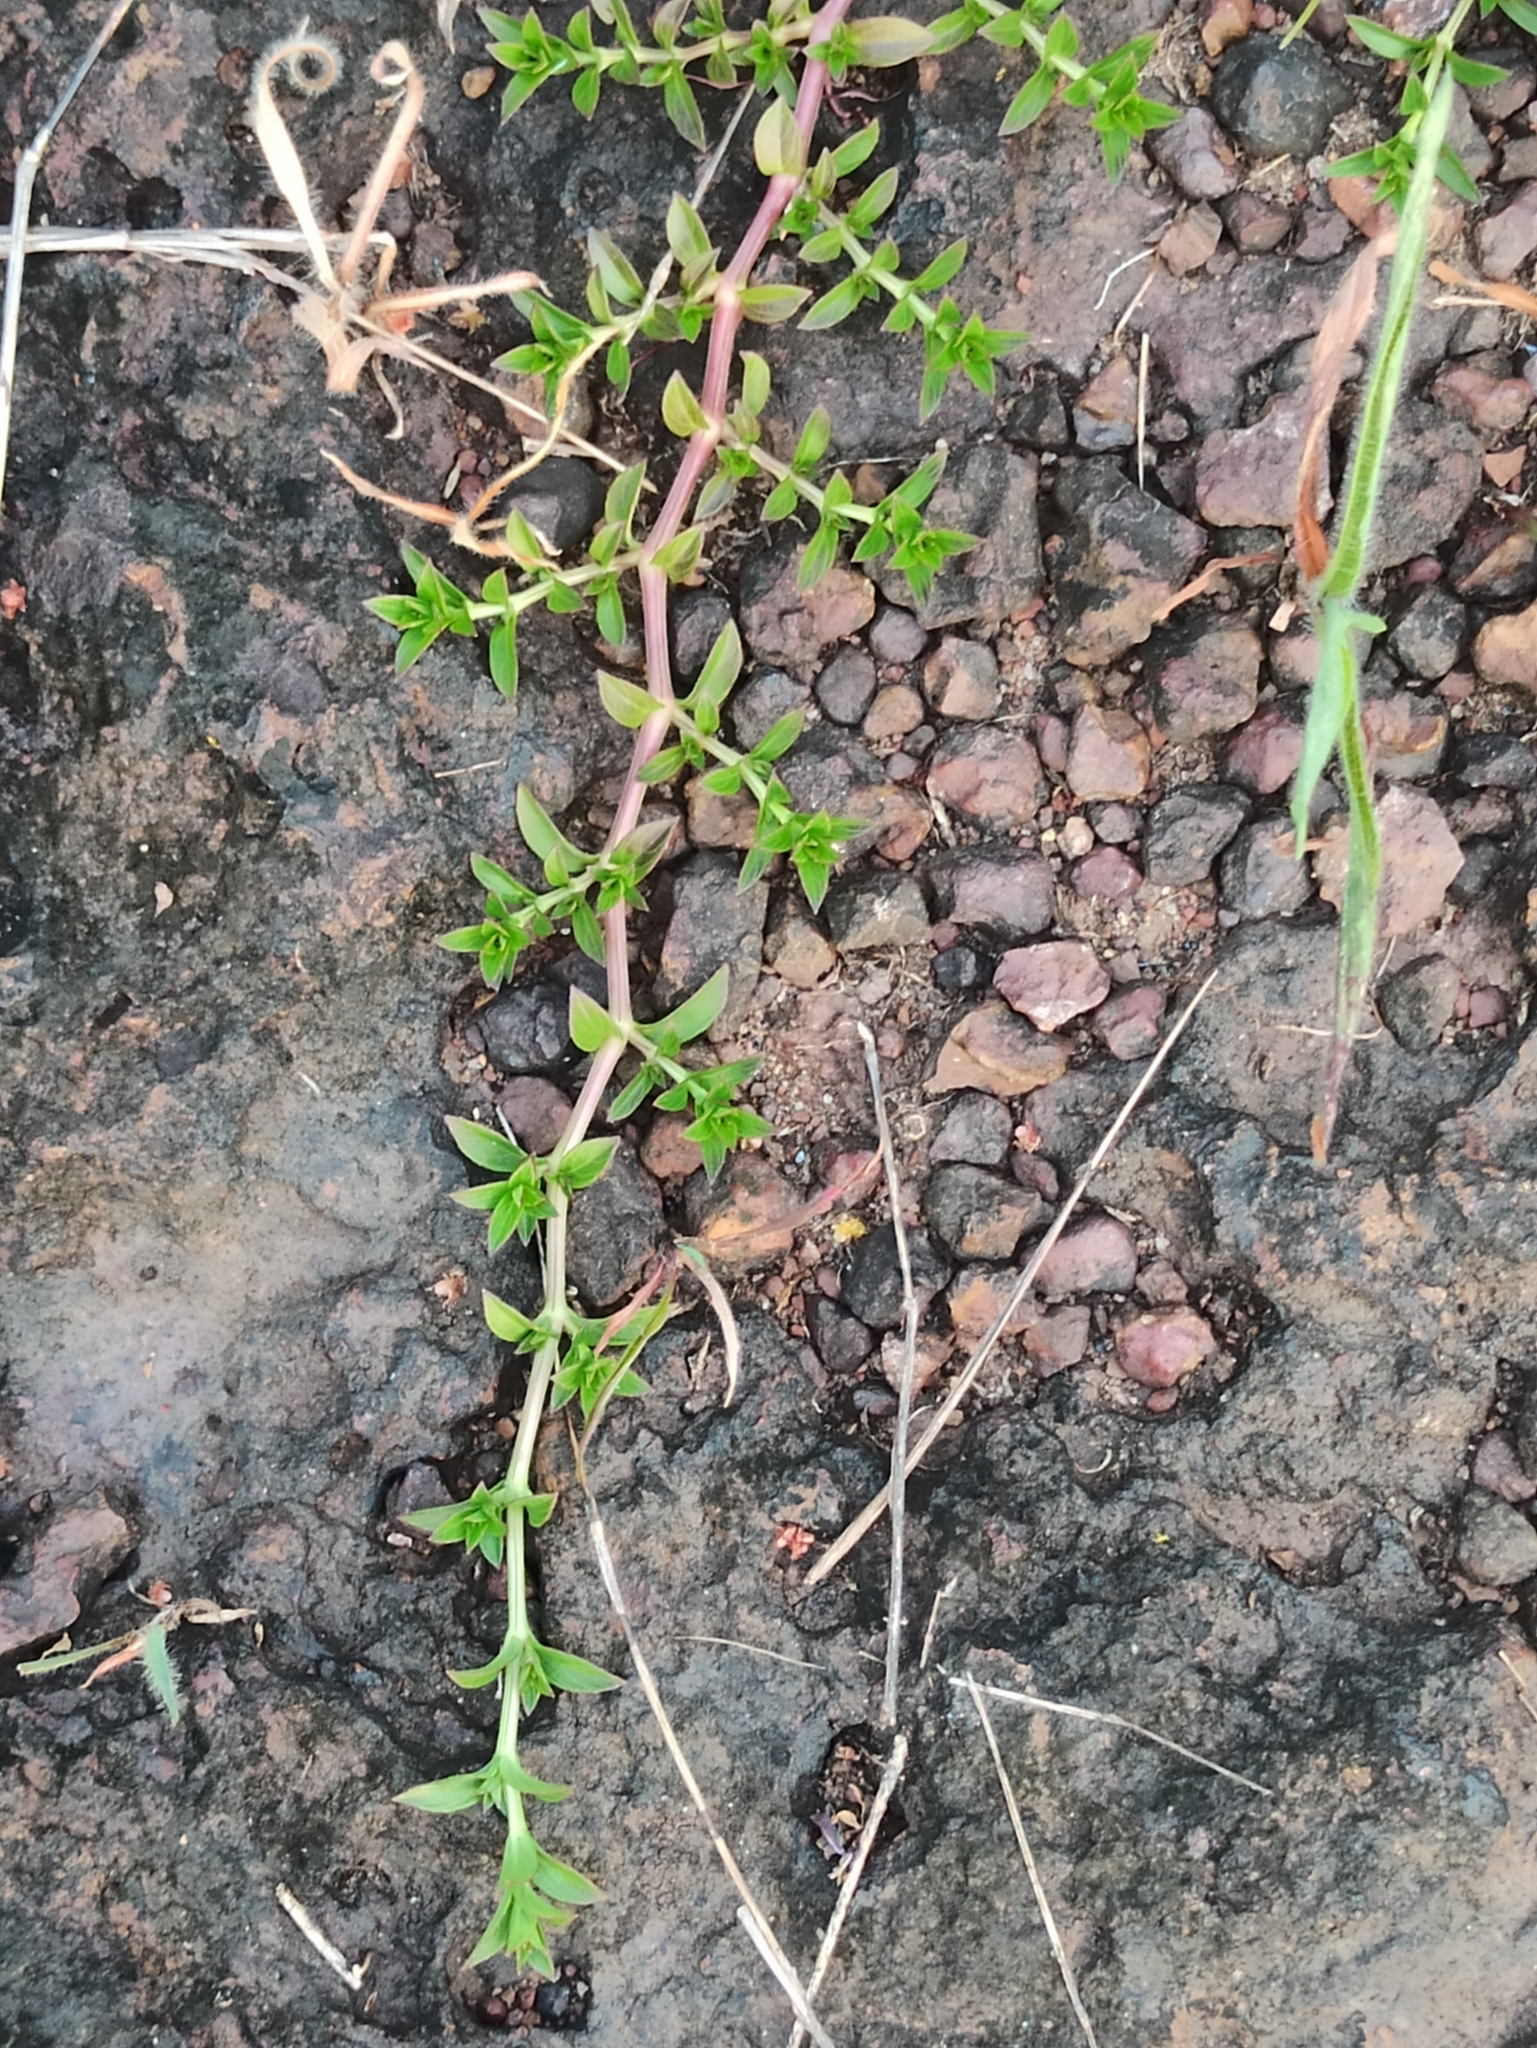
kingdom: Plantae
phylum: Tracheophyta
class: Magnoliopsida
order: Lamiales
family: Acanthaceae
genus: Lepidagathis
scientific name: Lepidagathis keralensis
